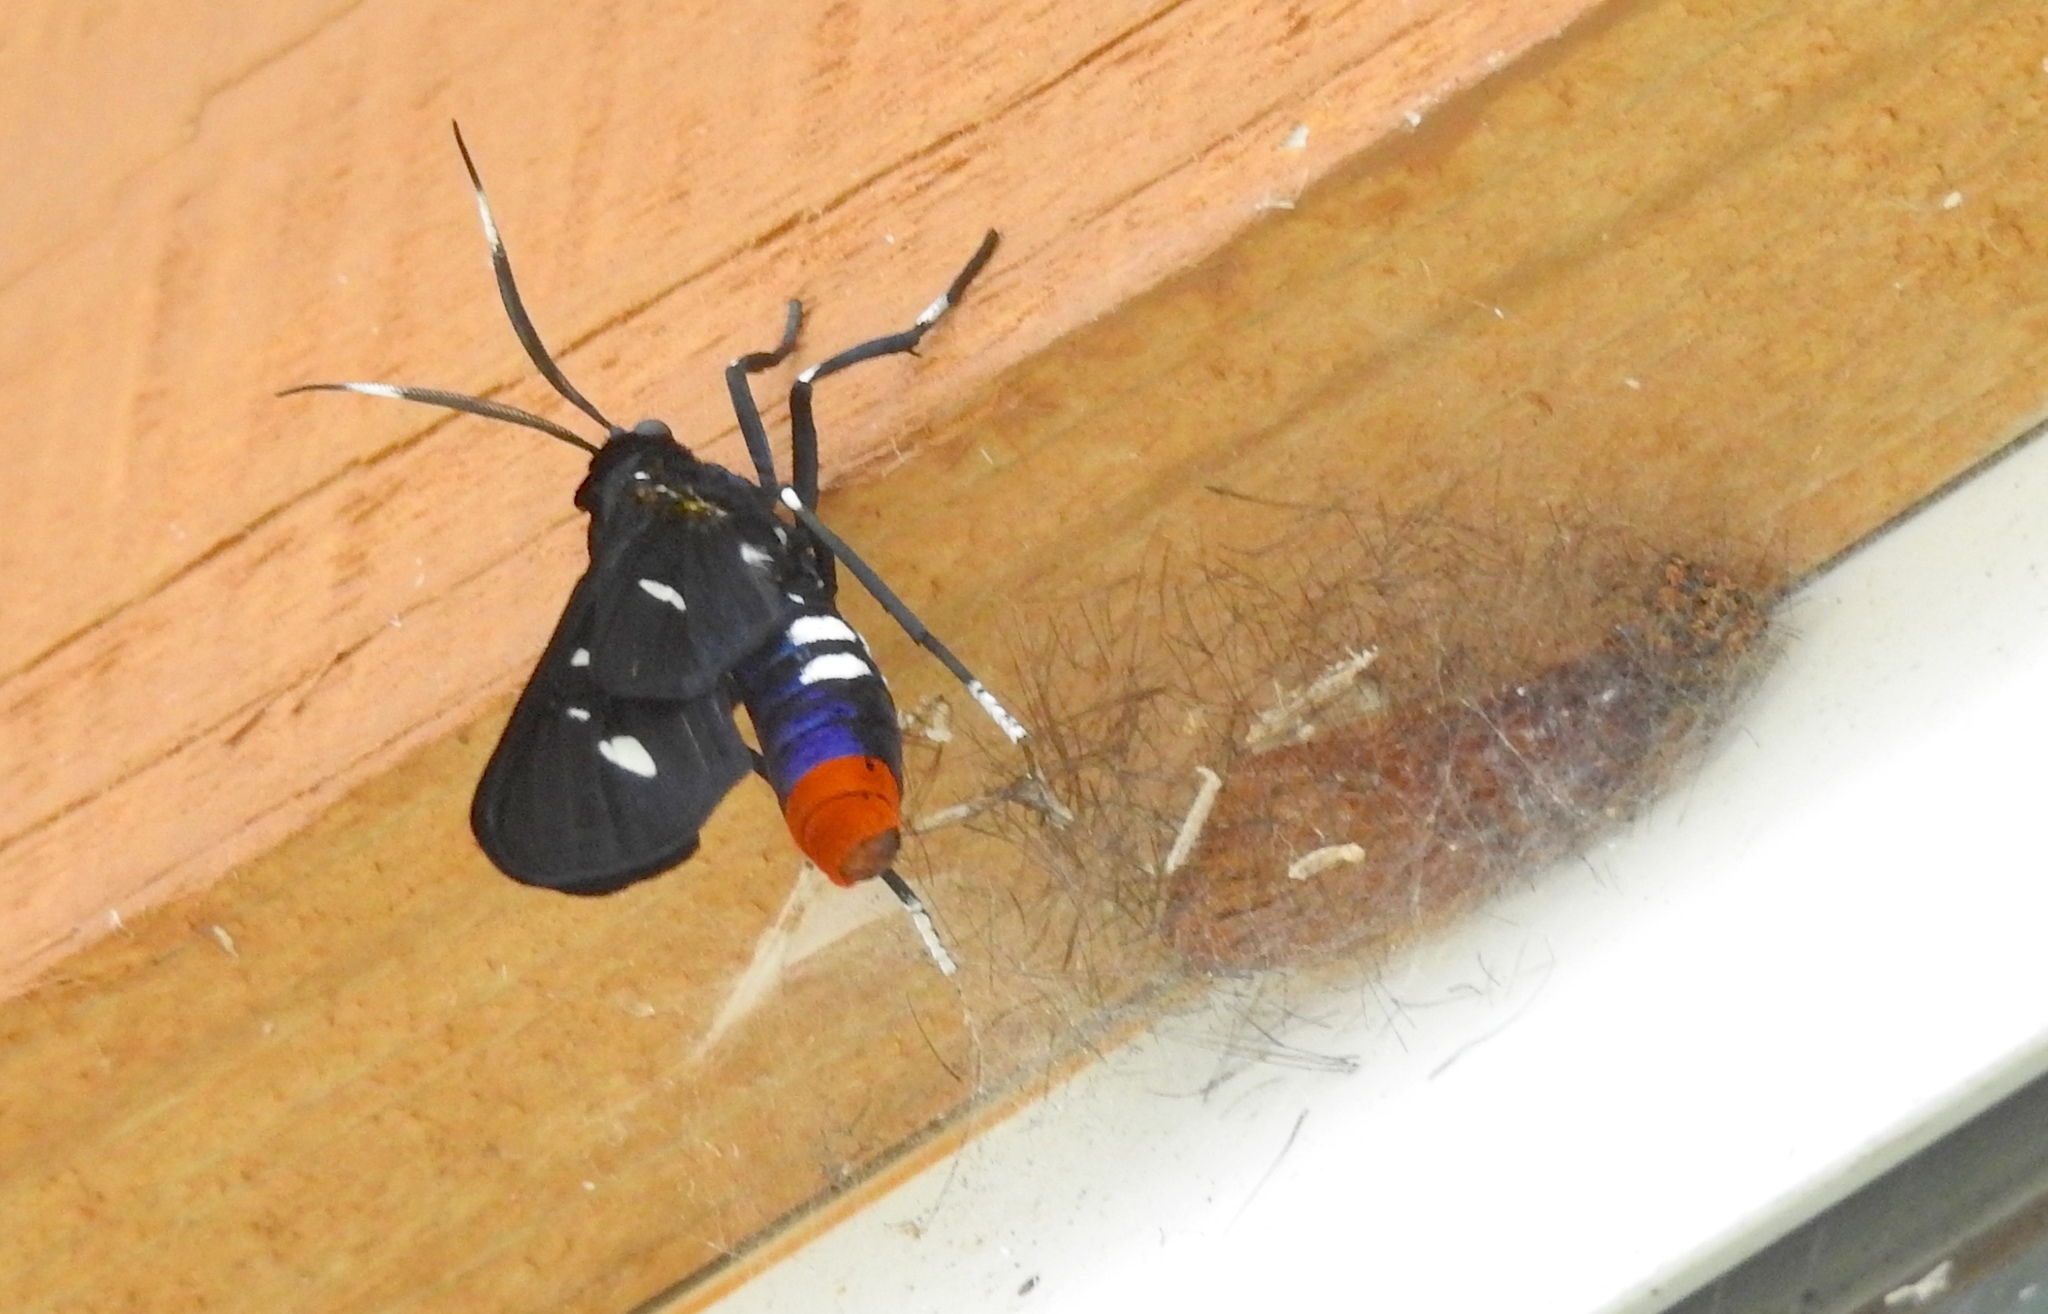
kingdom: Animalia
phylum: Arthropoda
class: Insecta
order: Lepidoptera
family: Erebidae
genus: Syntomeida
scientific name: Syntomeida epilais
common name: Polka-dot wasp moth
